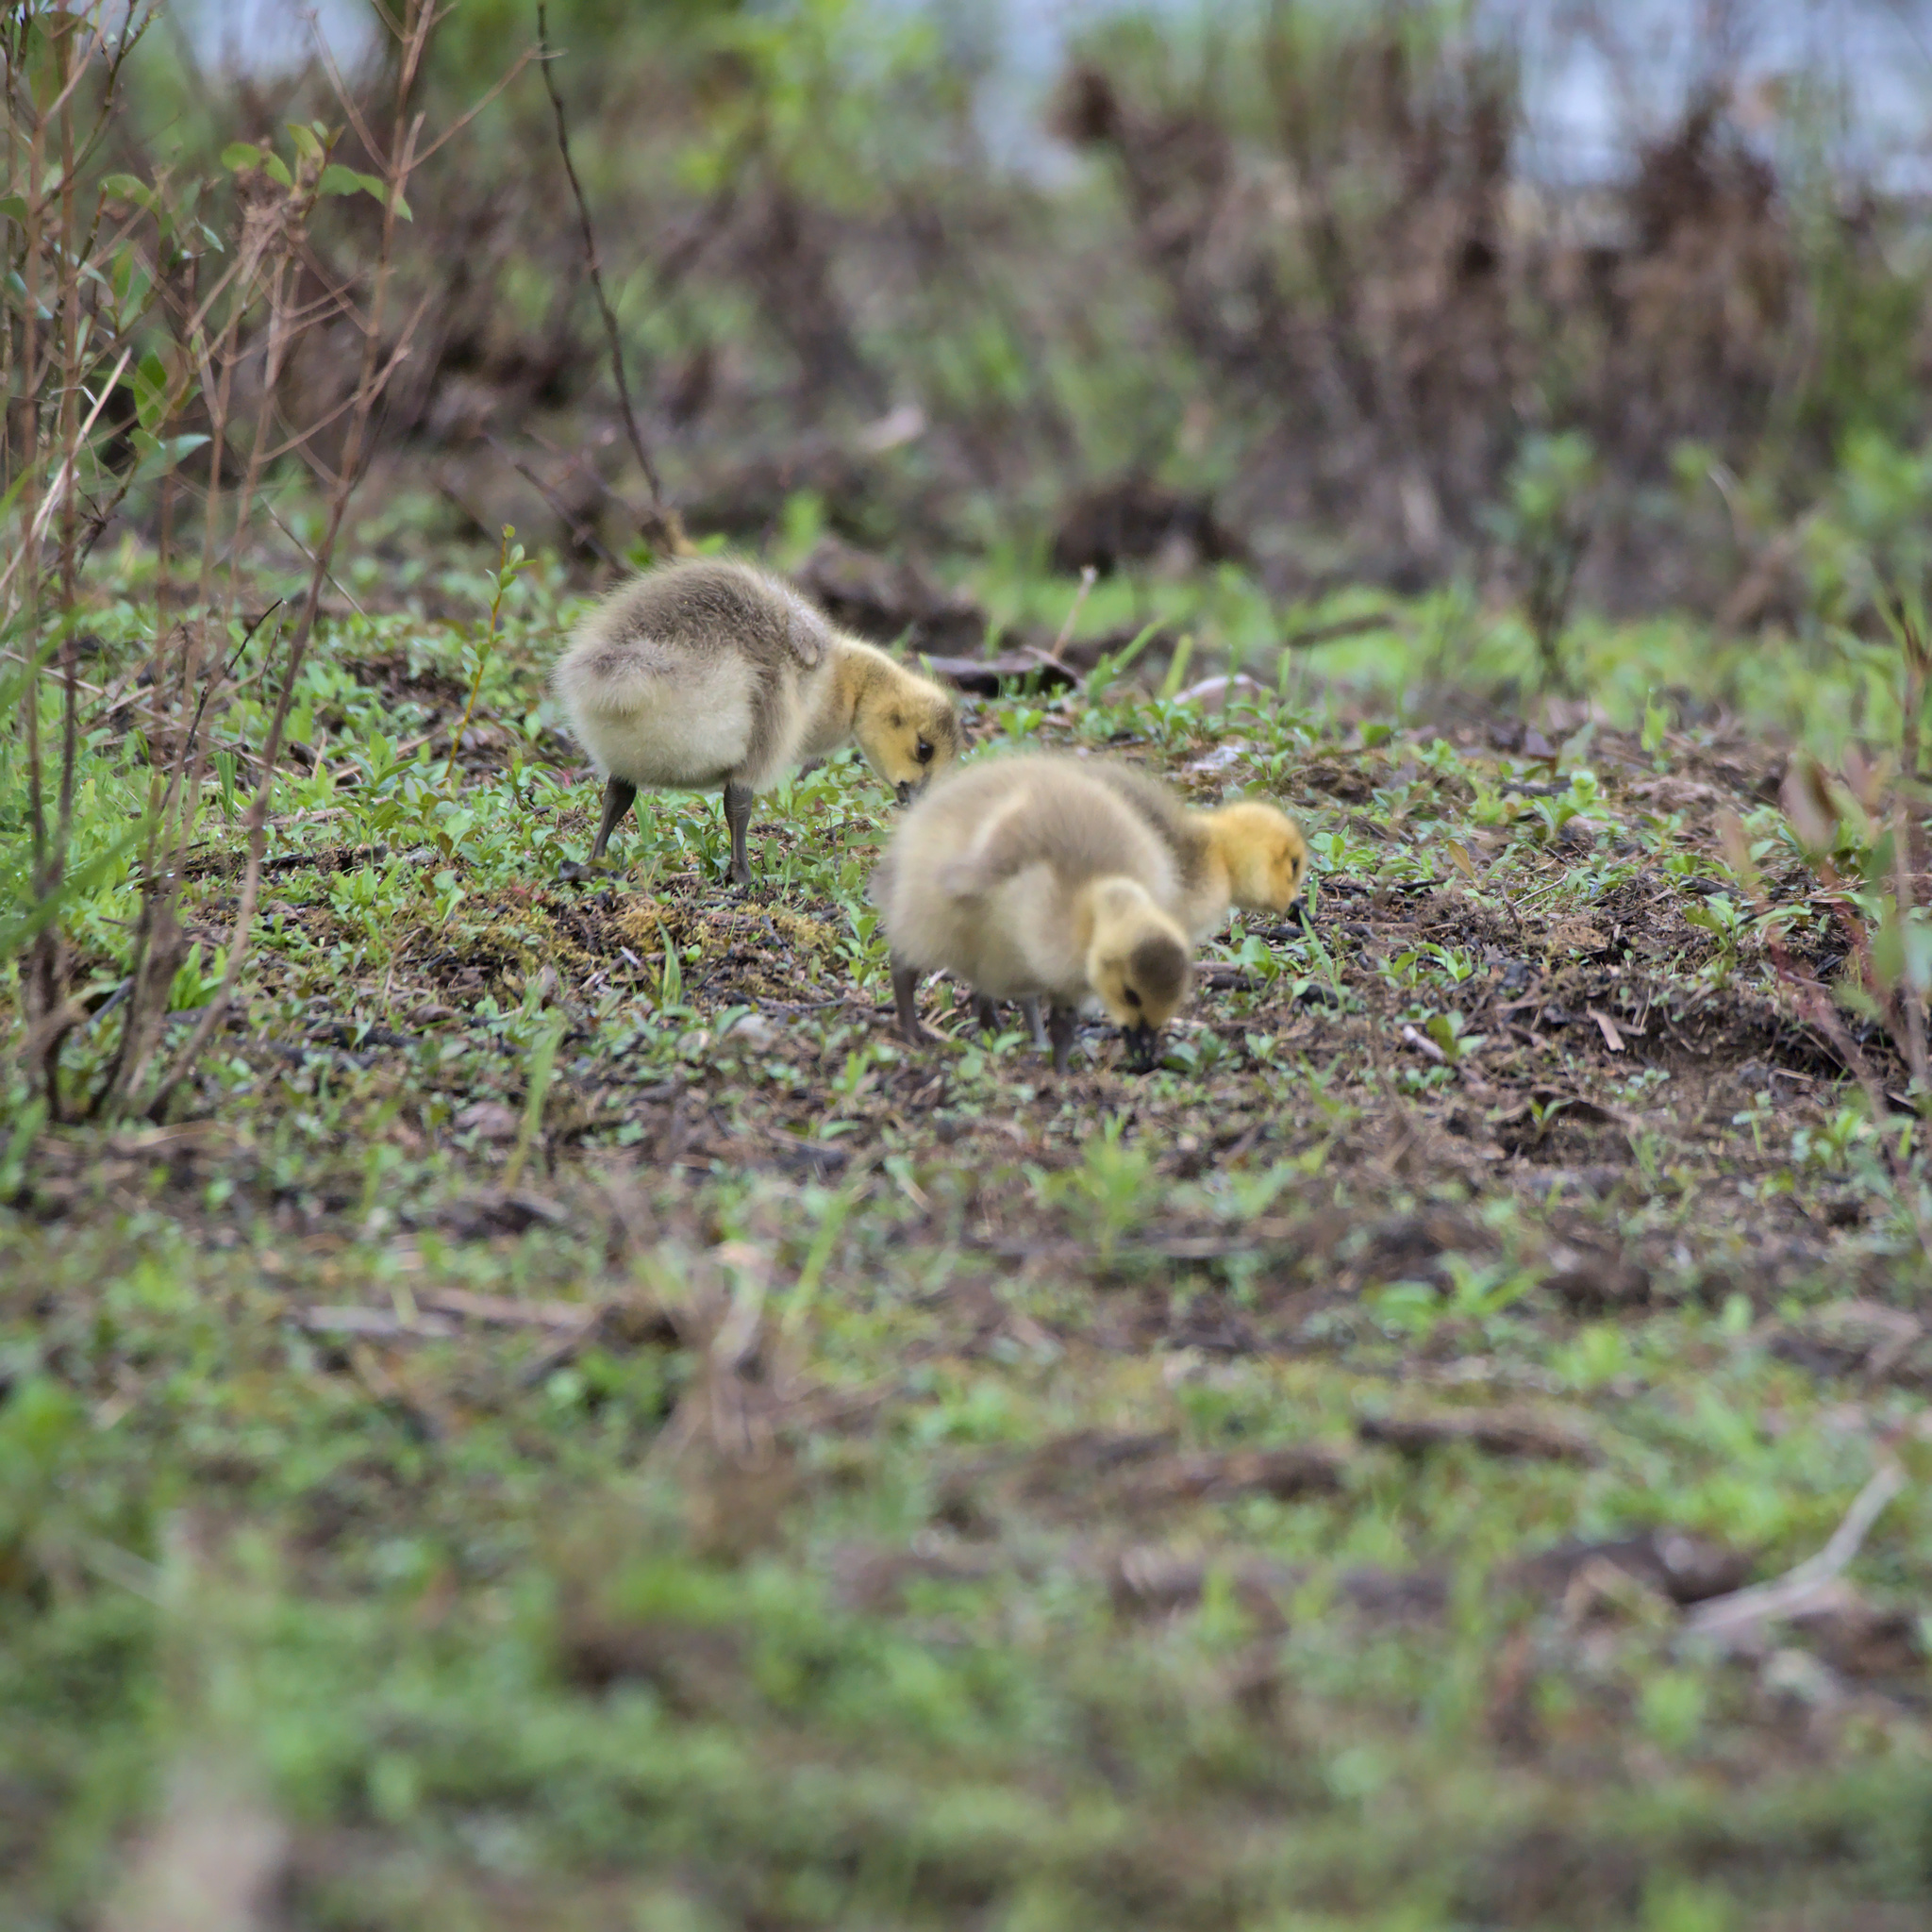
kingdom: Animalia
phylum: Chordata
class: Aves
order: Anseriformes
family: Anatidae
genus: Branta
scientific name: Branta canadensis
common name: Canada goose
